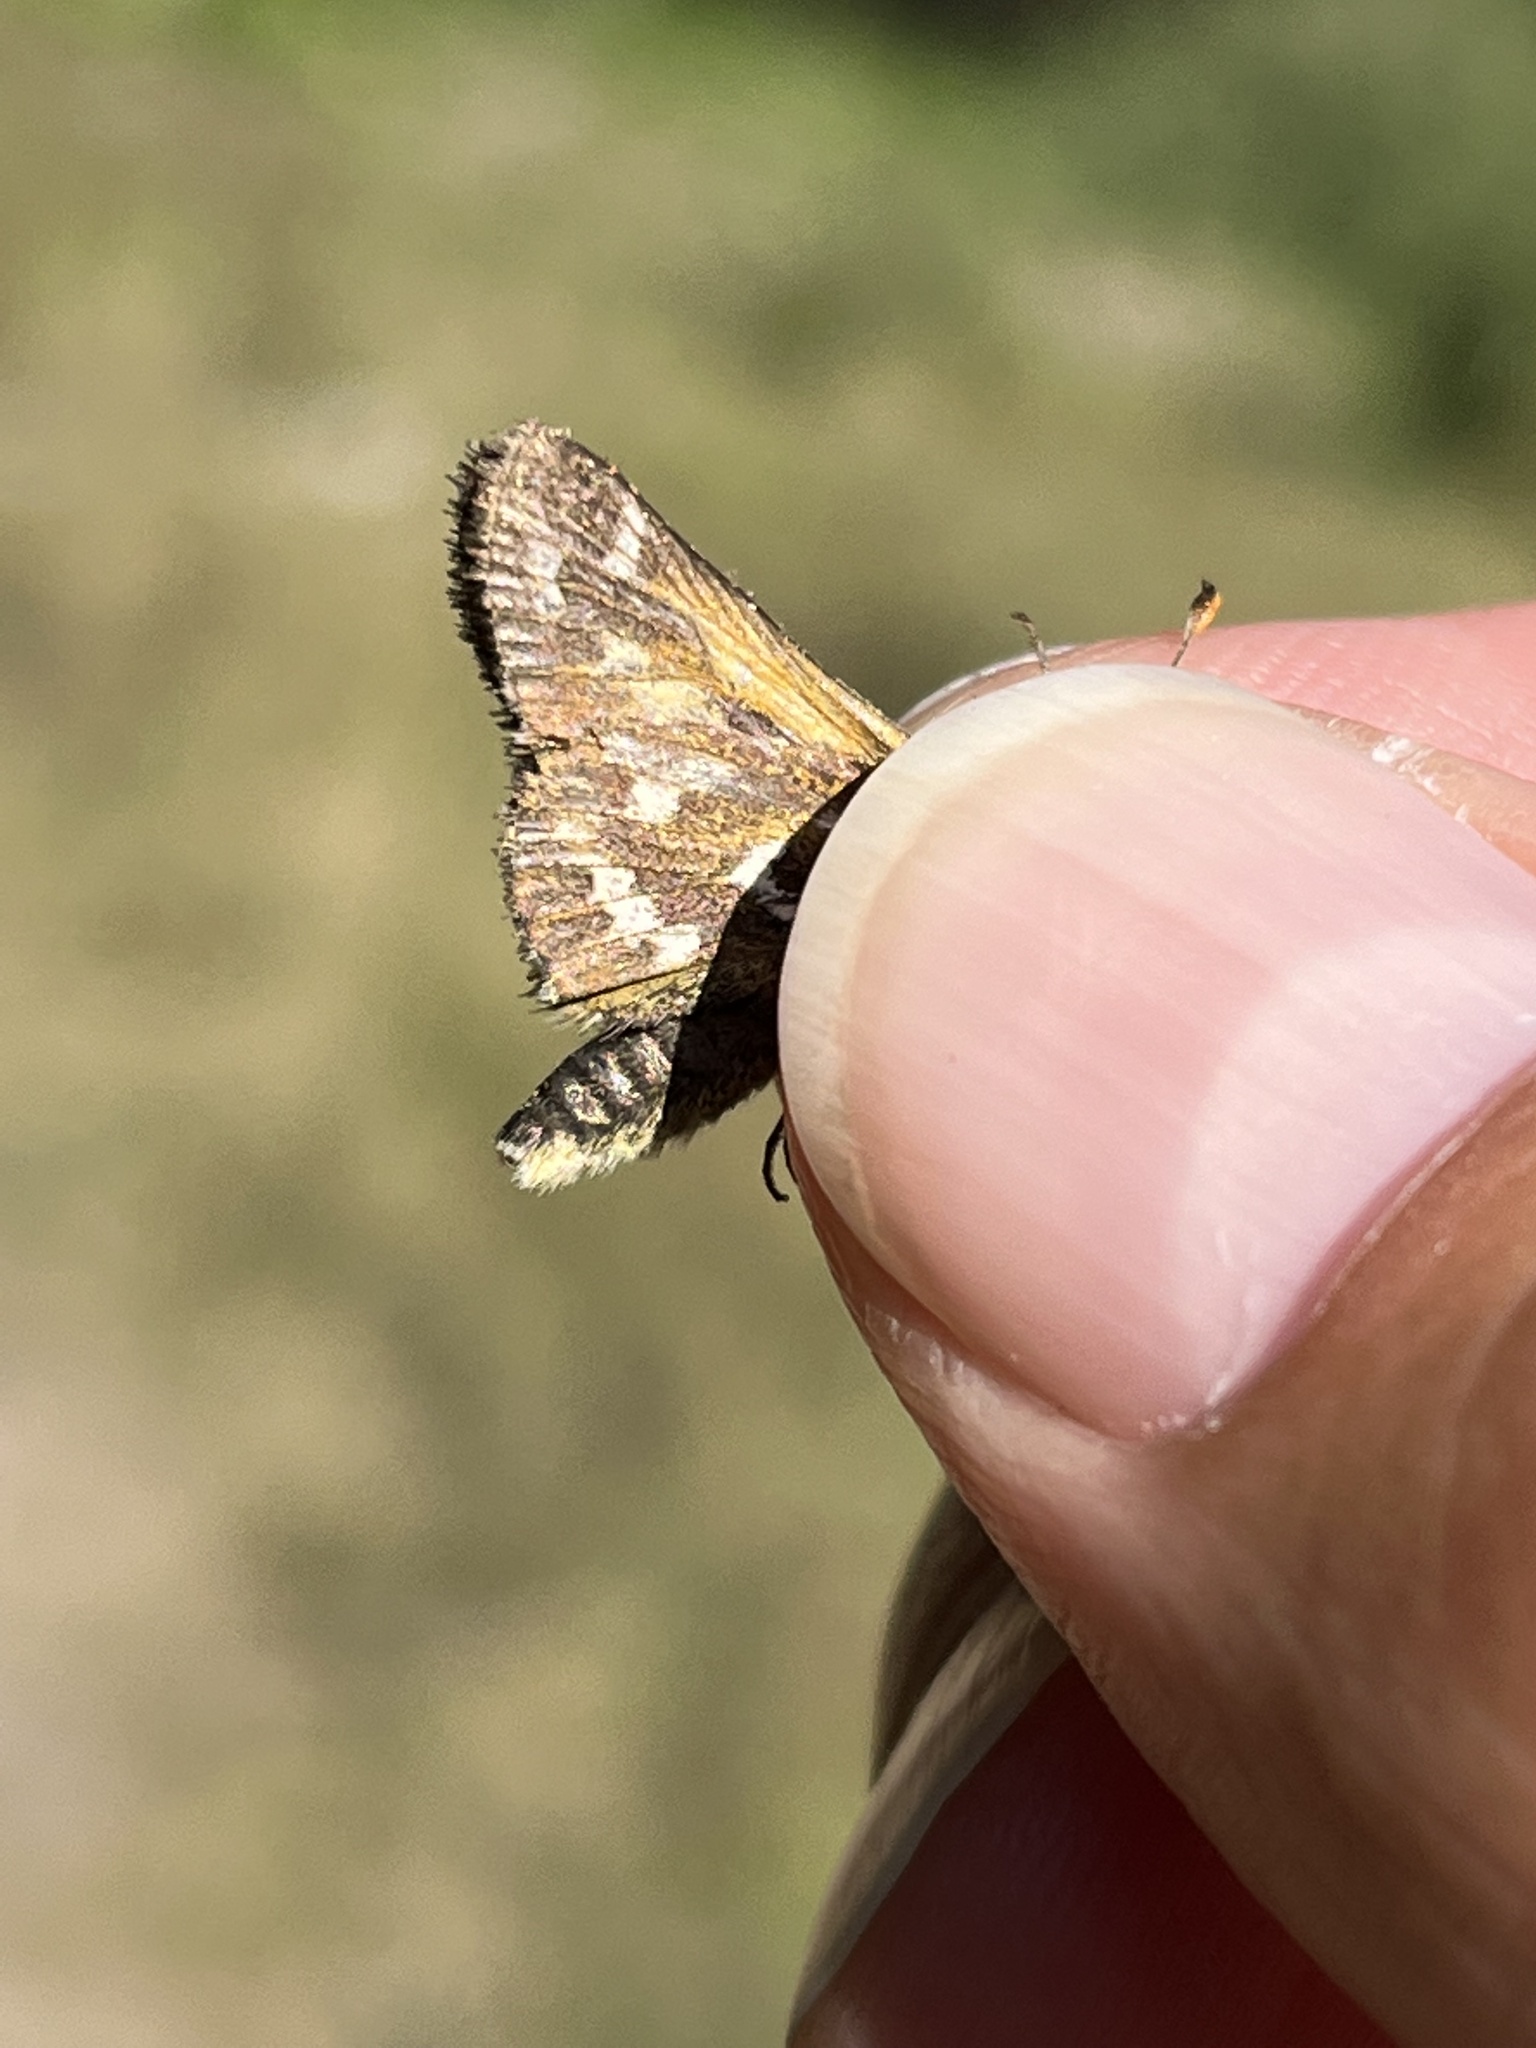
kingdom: Animalia
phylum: Arthropoda
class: Insecta
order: Lepidoptera
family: Hesperiidae
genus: Hesperia
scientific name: Hesperia comma
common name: Common branded skipper
